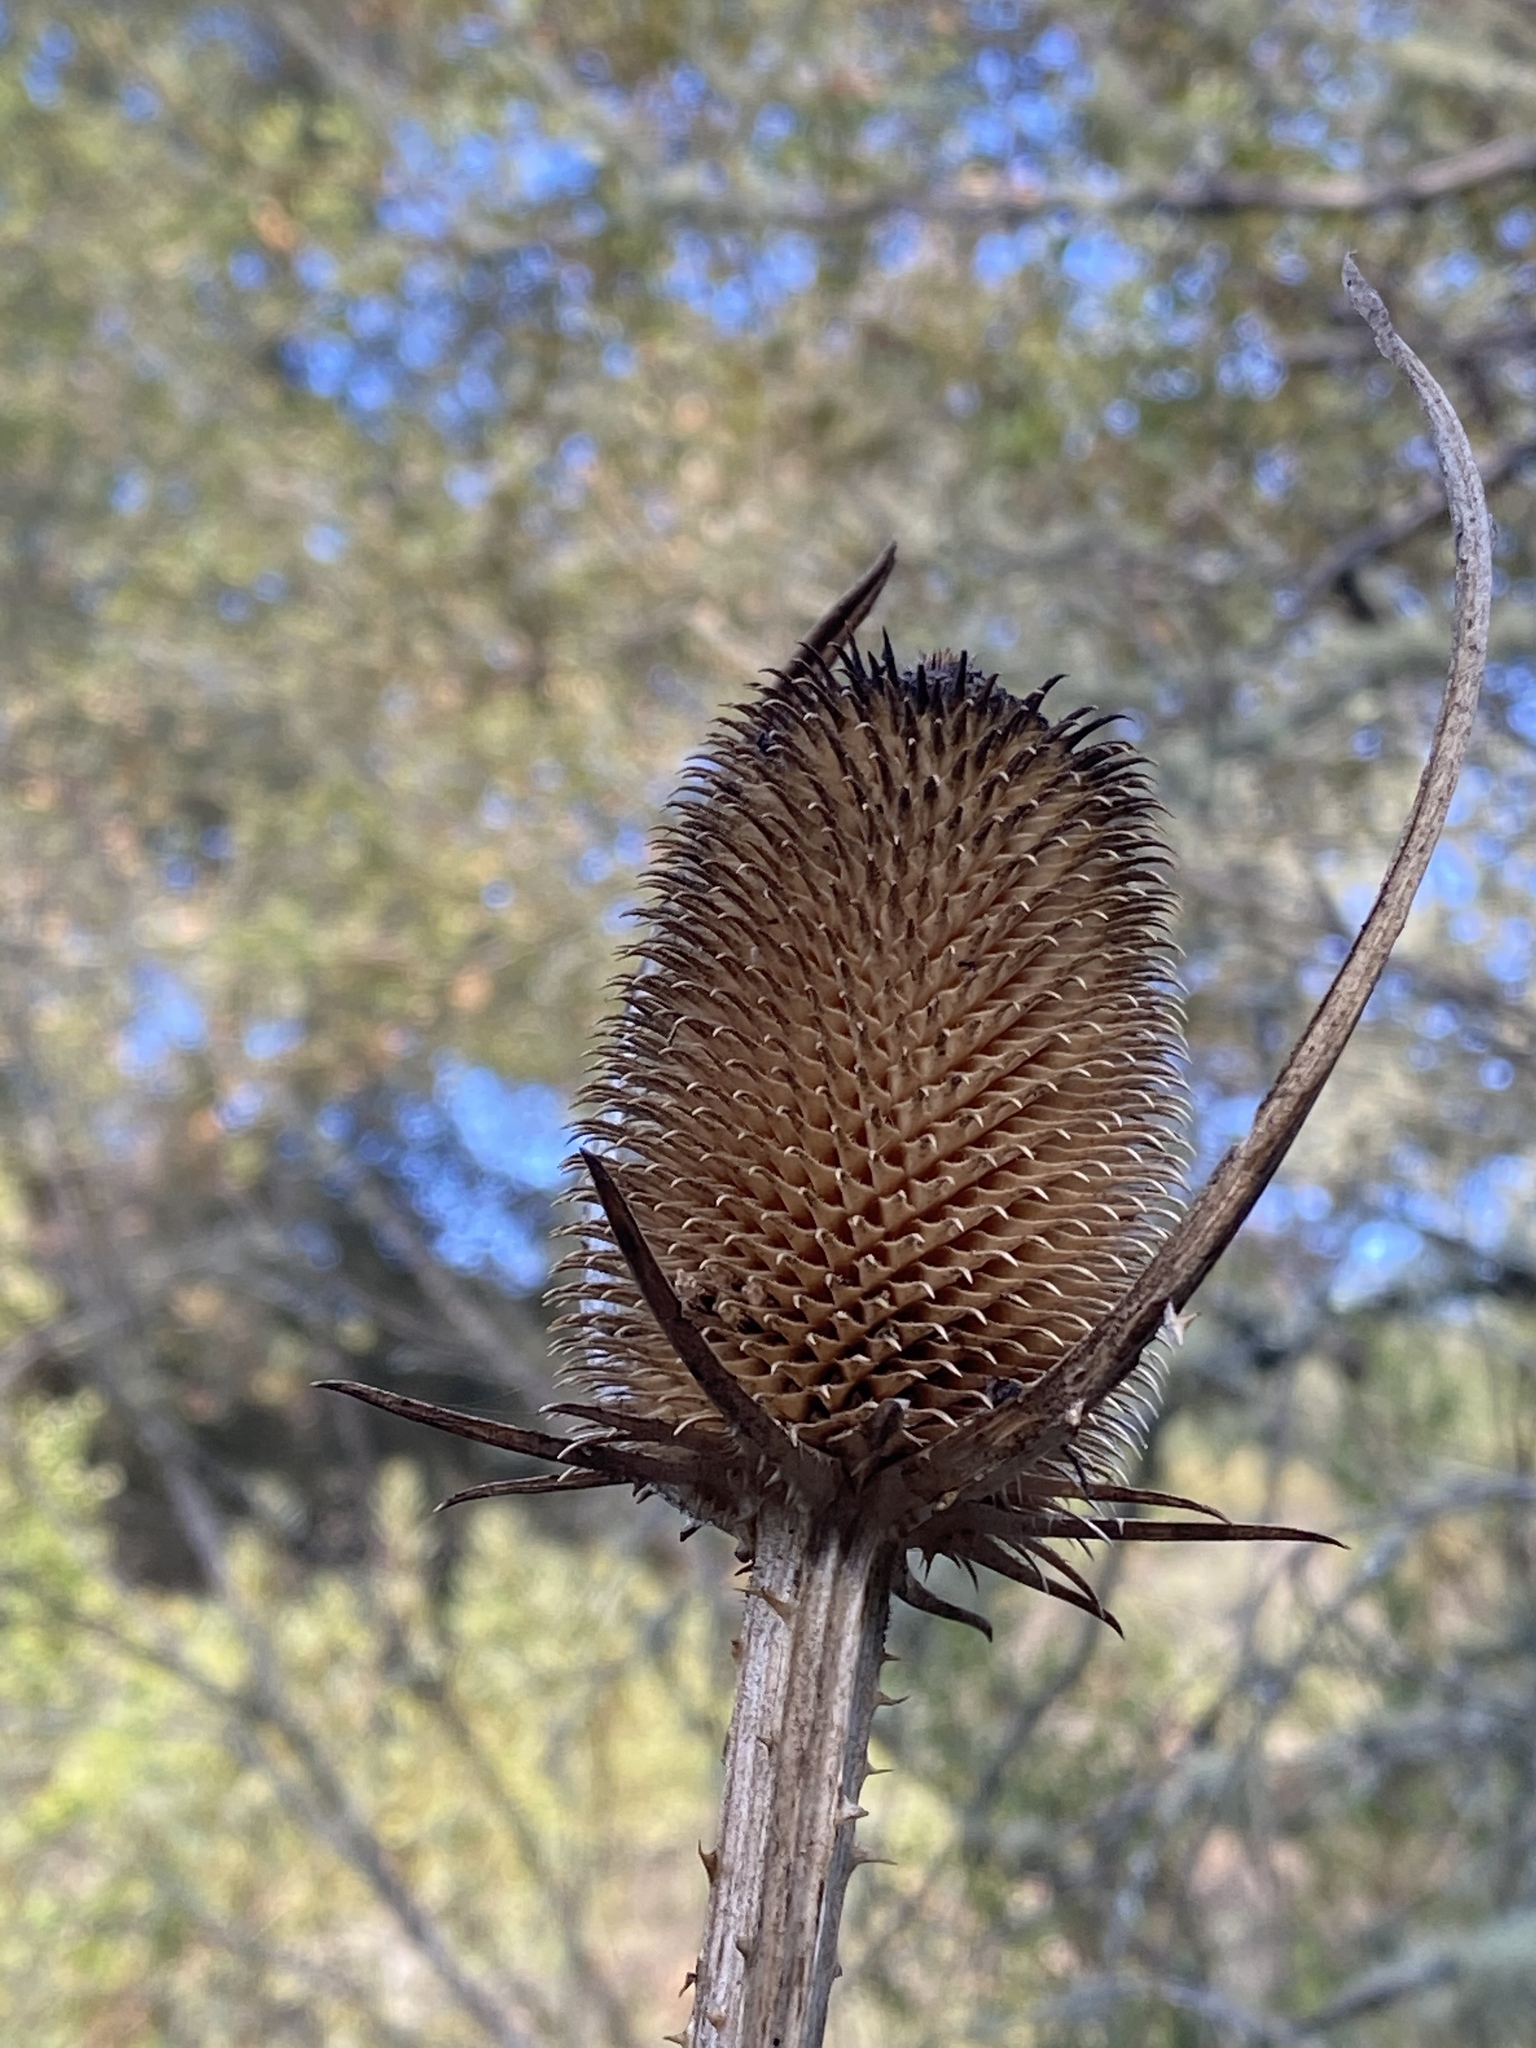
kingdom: Plantae
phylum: Tracheophyta
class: Magnoliopsida
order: Dipsacales
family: Caprifoliaceae
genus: Dipsacus
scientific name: Dipsacus sativus
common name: Fuller's teasel
